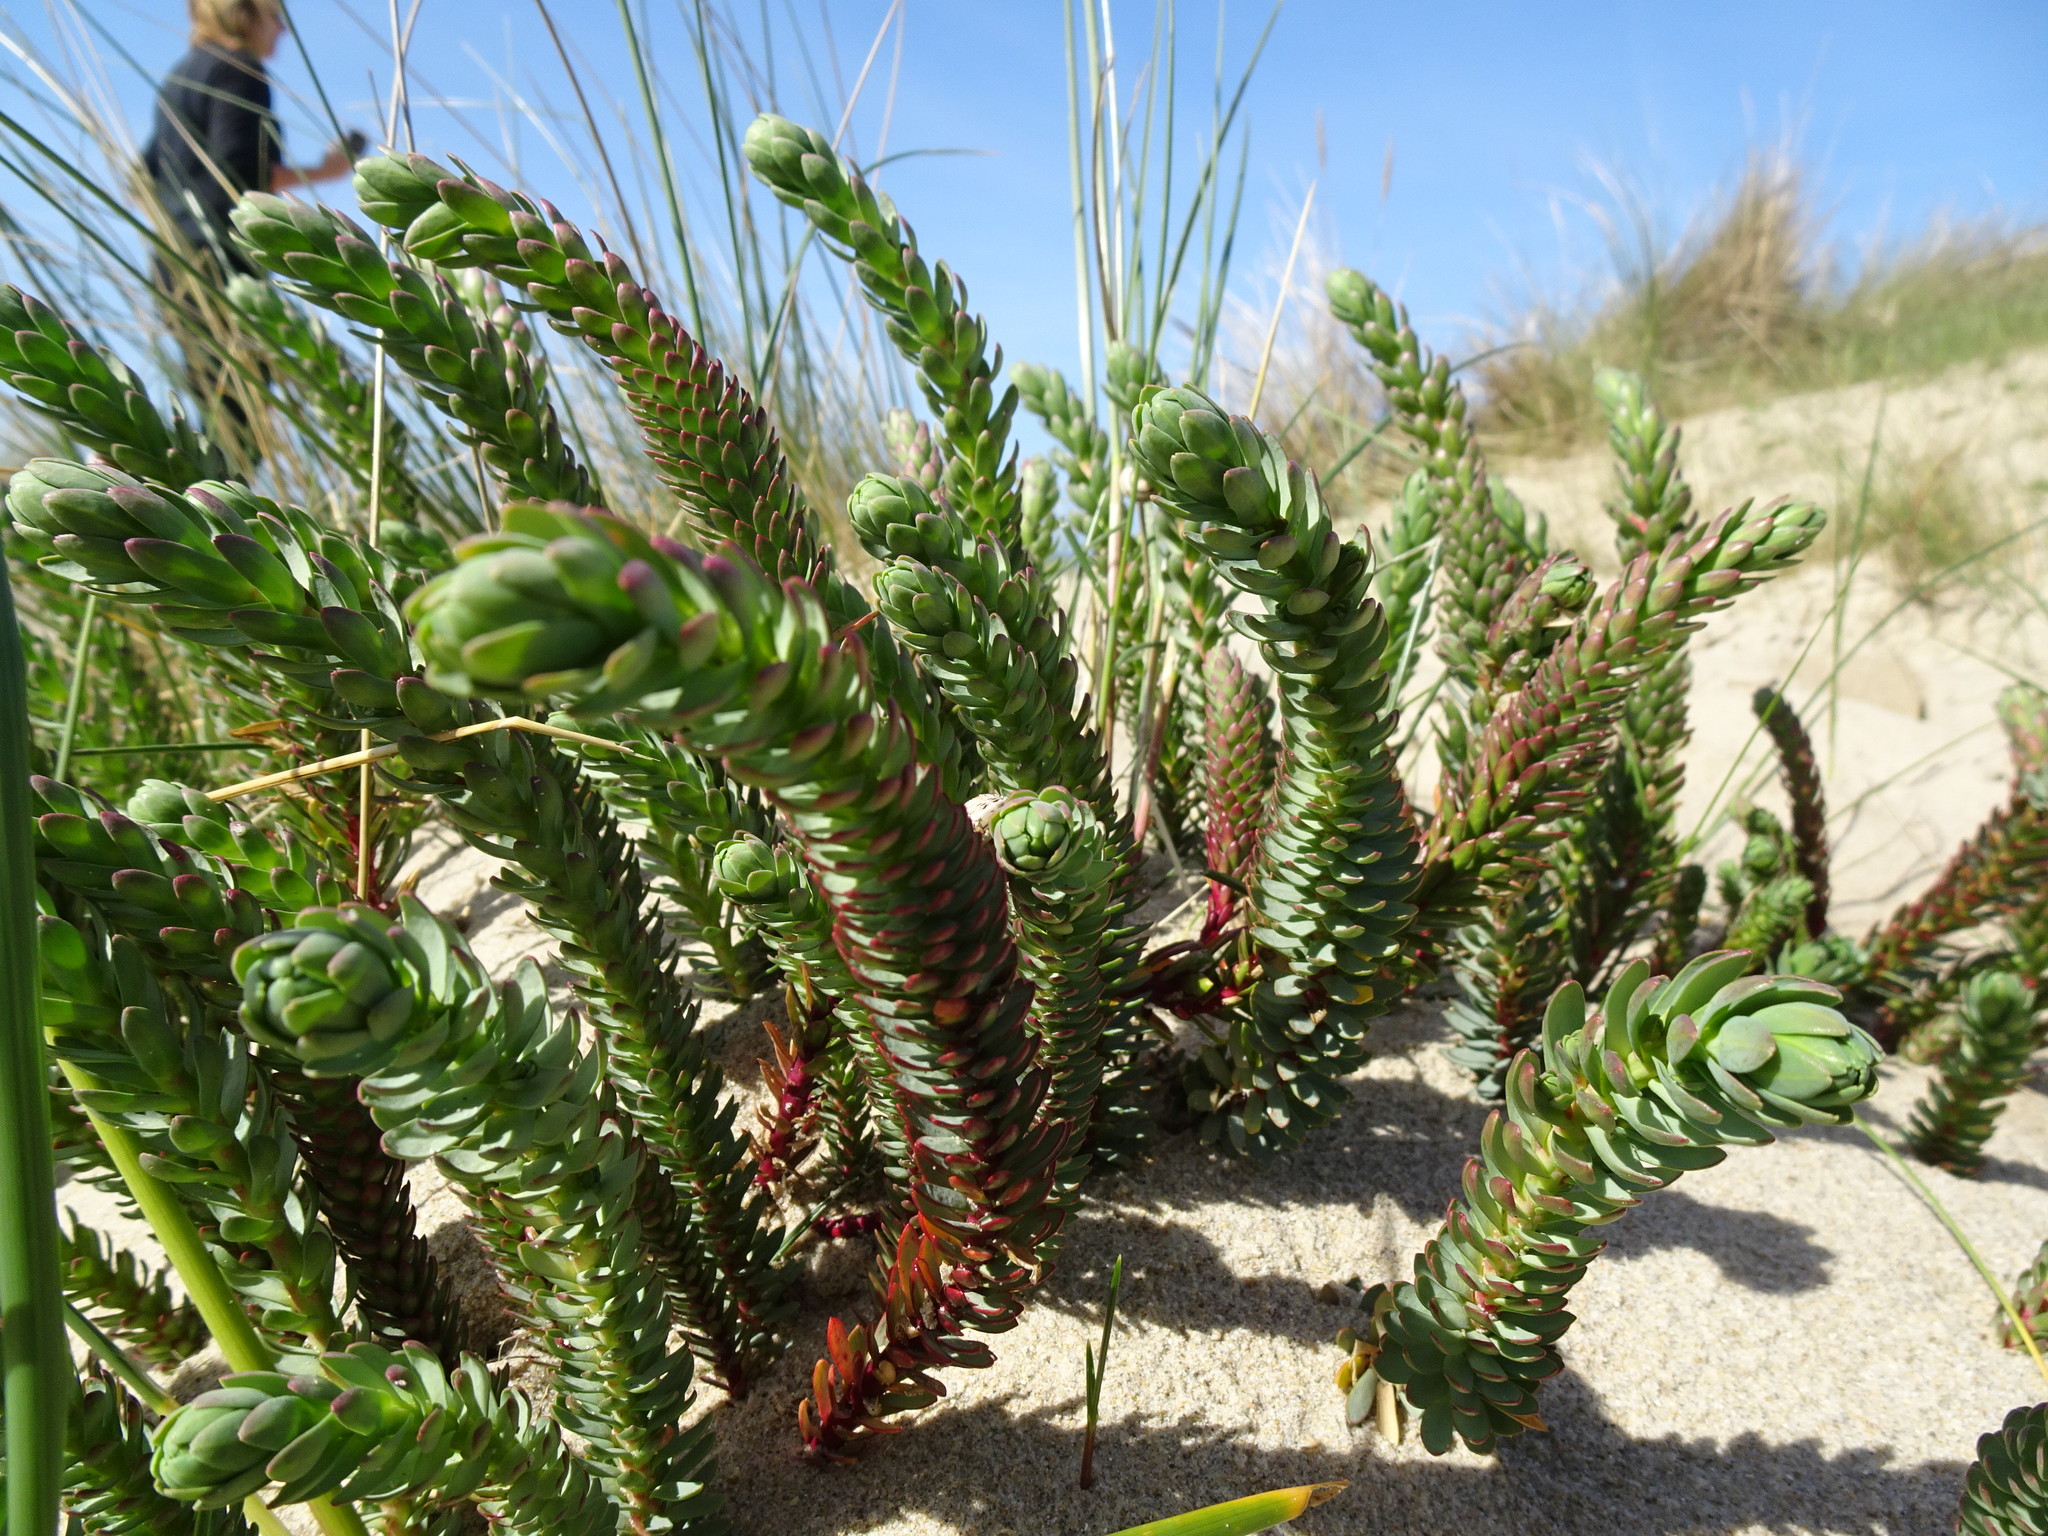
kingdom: Plantae
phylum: Tracheophyta
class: Magnoliopsida
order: Malpighiales
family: Euphorbiaceae
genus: Euphorbia
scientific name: Euphorbia paralias
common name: Sea spurge
